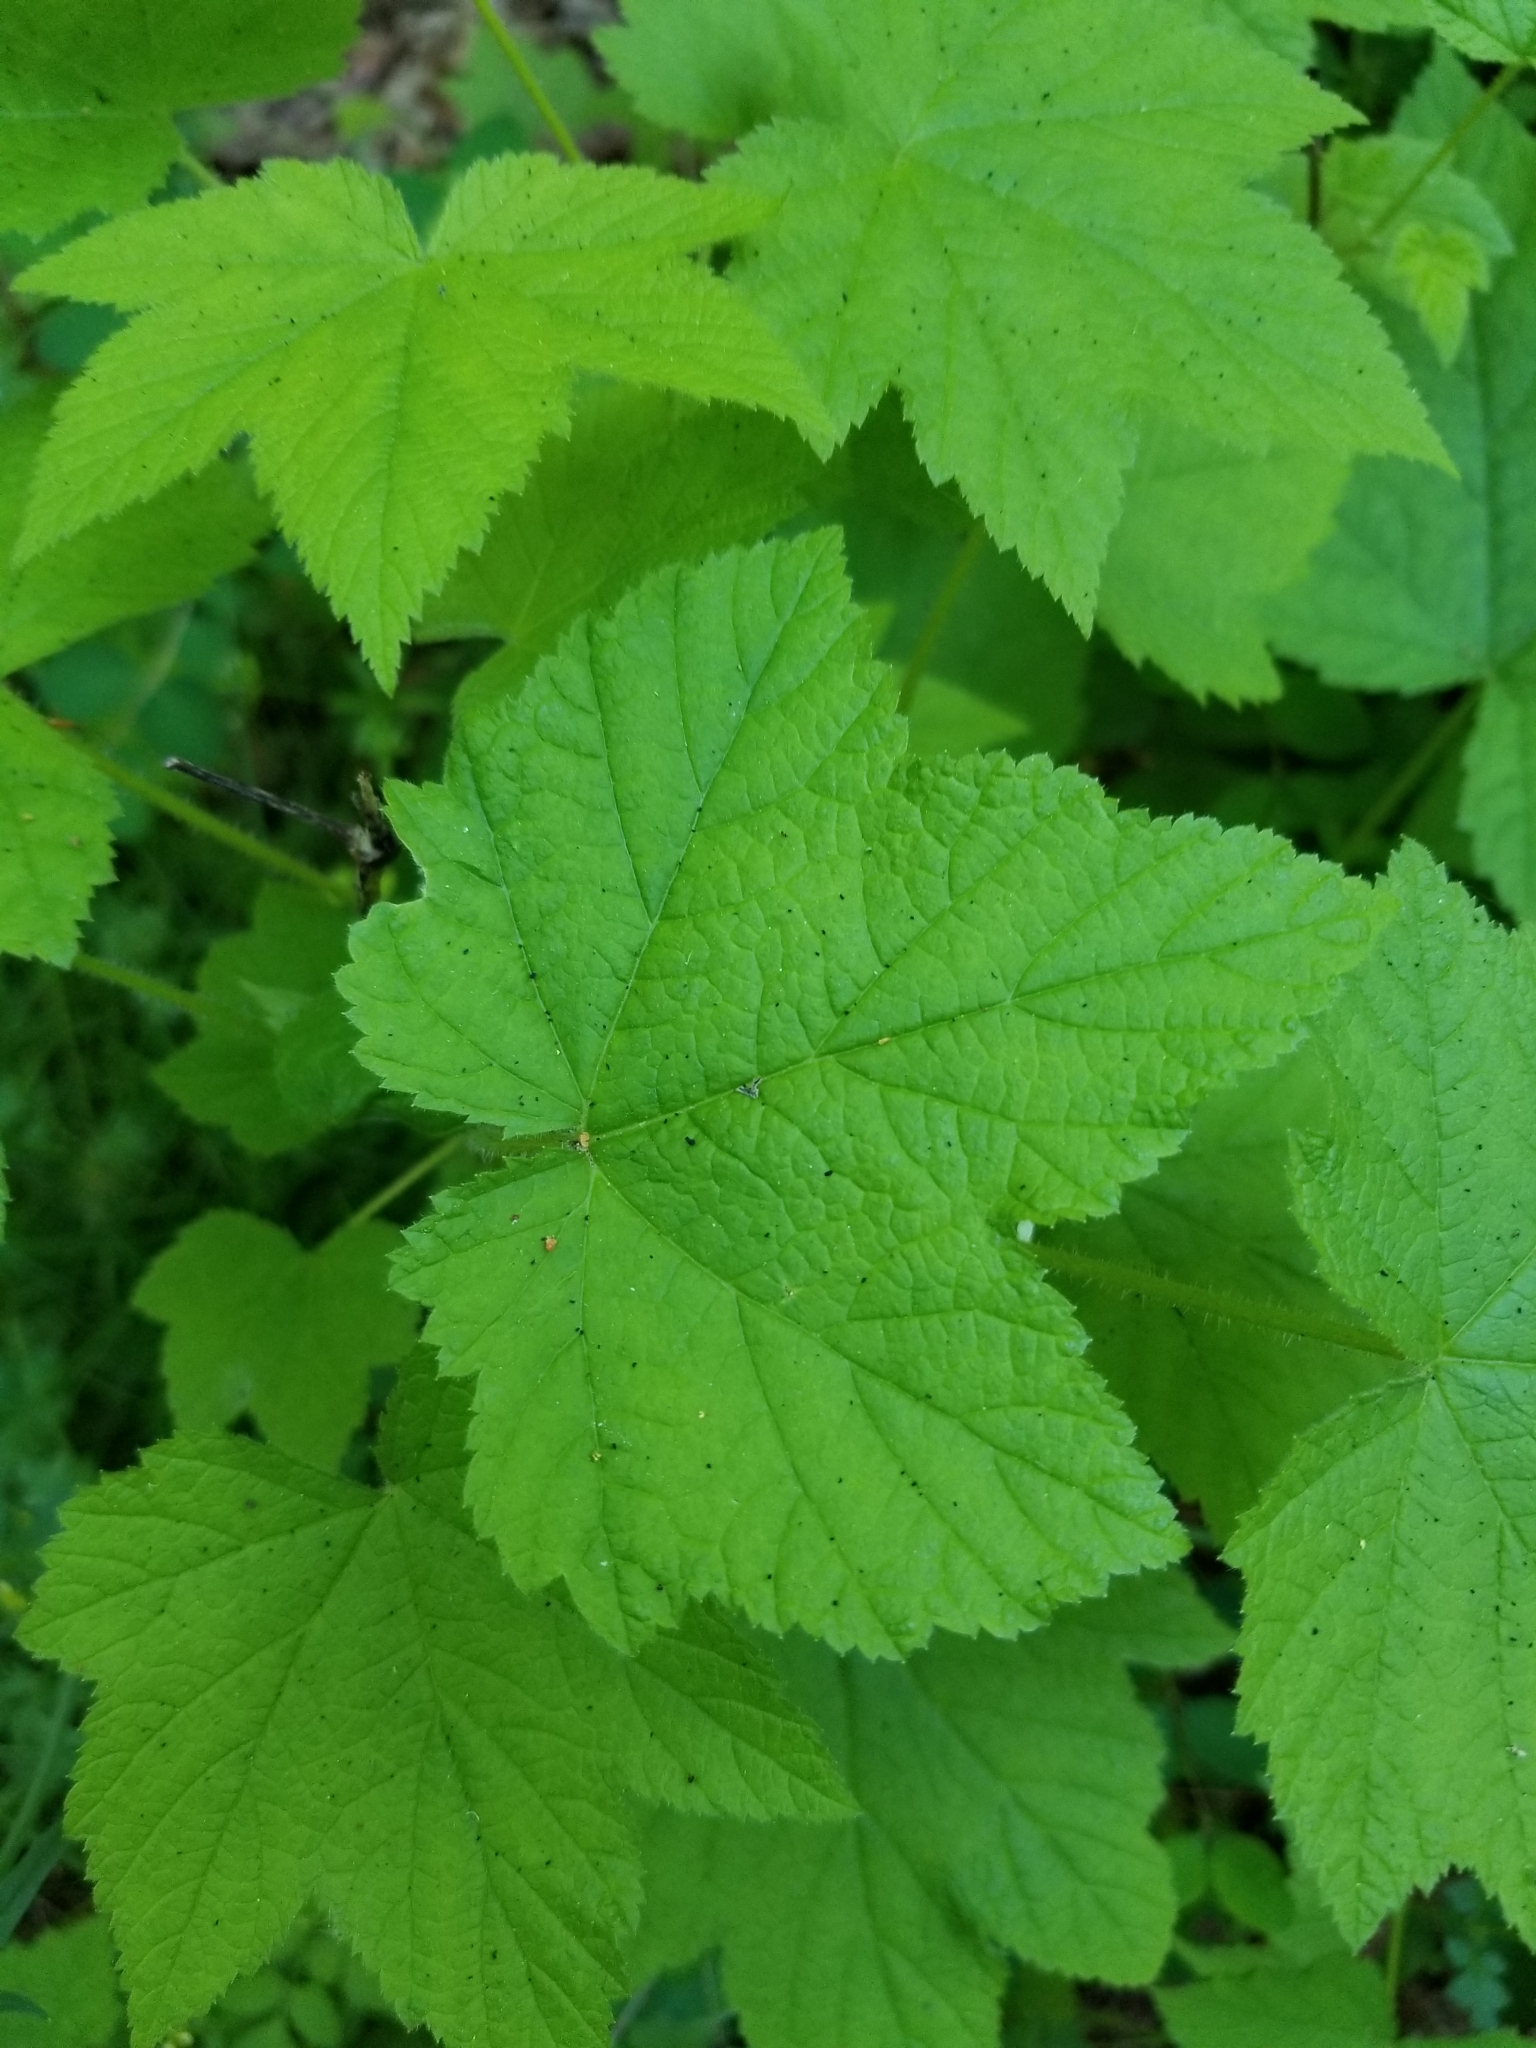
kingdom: Plantae
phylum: Tracheophyta
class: Magnoliopsida
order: Rosales
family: Rosaceae
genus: Rubus
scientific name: Rubus parviflorus
